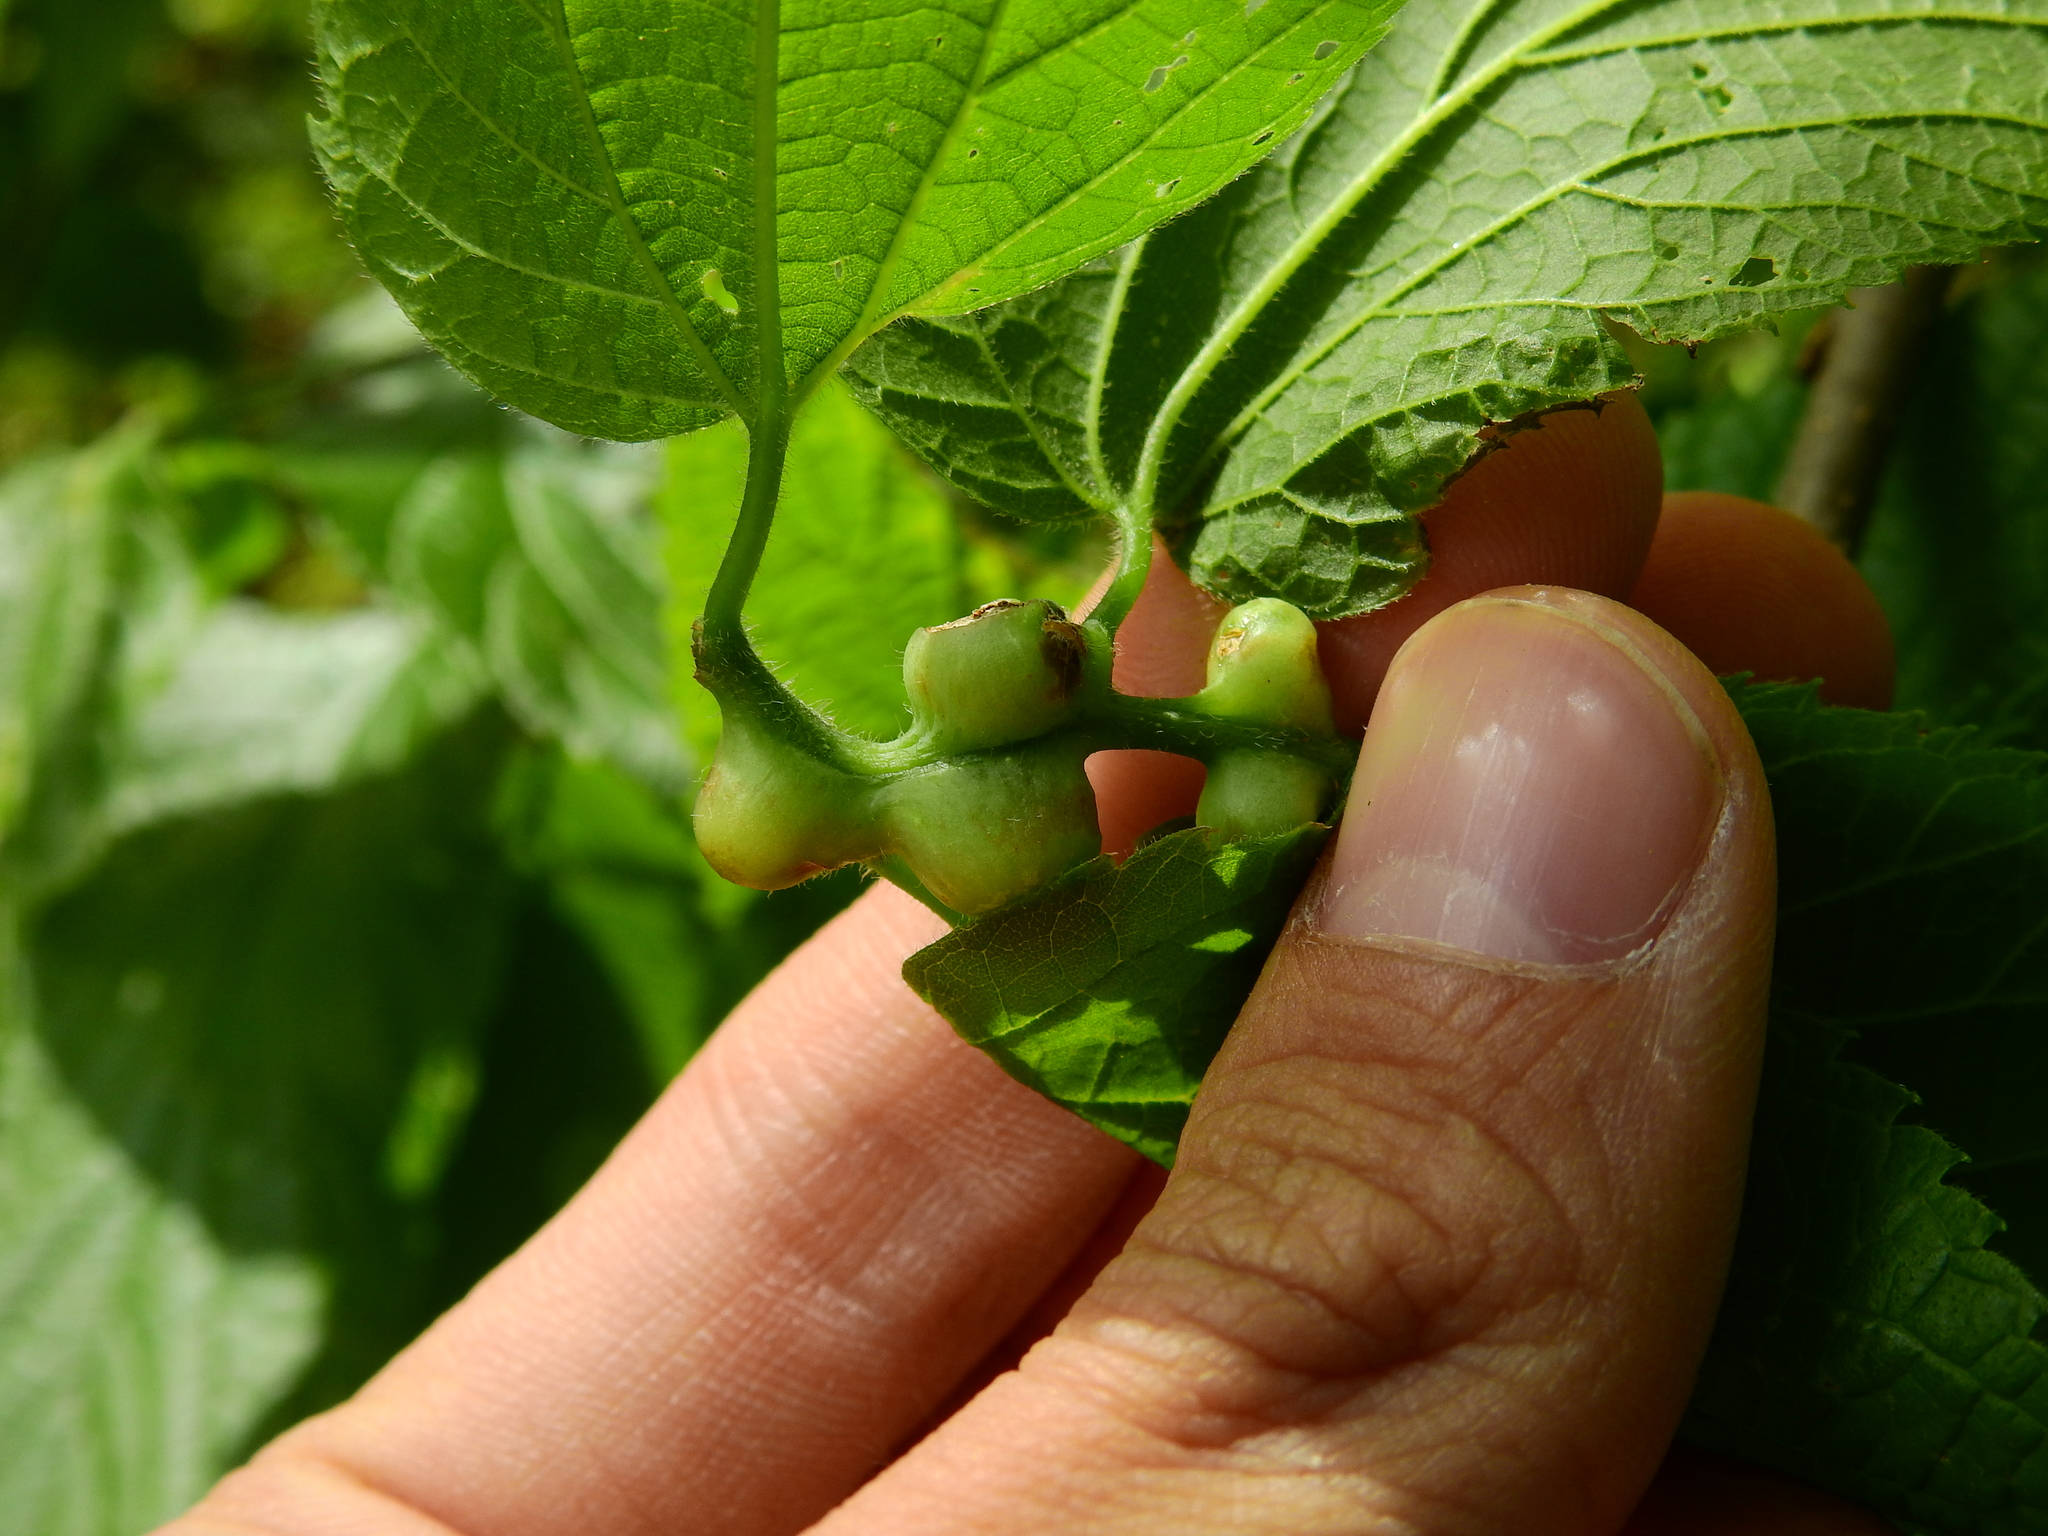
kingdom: Animalia
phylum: Arthropoda
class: Insecta
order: Diptera
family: Cecidomyiidae
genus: Celticecis
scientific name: Celticecis expulsa
